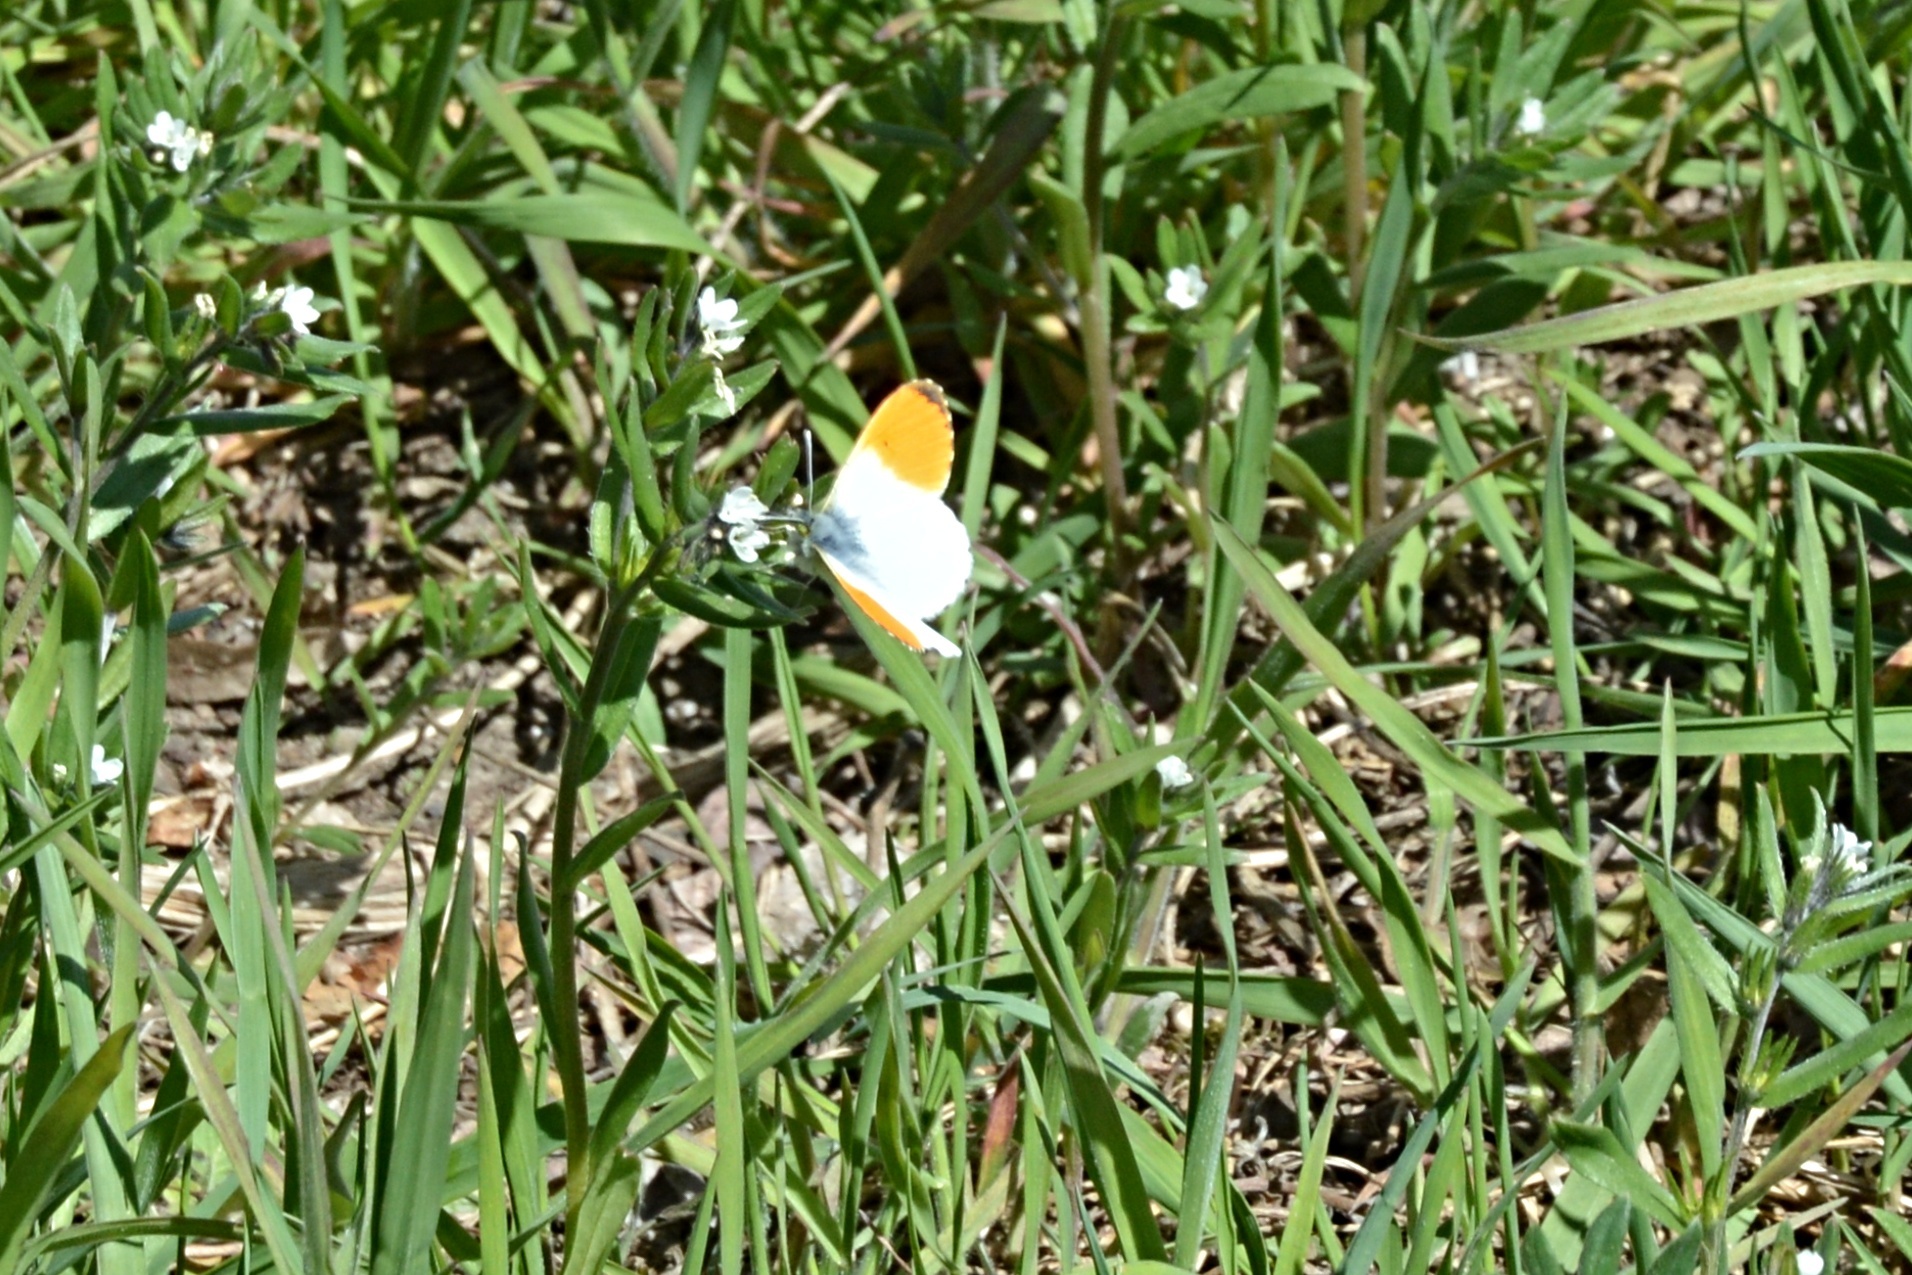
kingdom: Animalia
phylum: Arthropoda
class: Insecta
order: Lepidoptera
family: Pieridae
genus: Anthocharis
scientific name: Anthocharis cardamines
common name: Orange-tip
